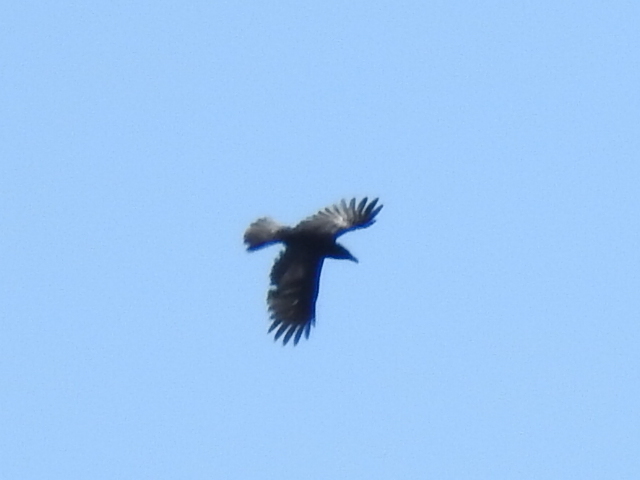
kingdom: Animalia
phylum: Chordata
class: Aves
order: Accipitriformes
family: Accipitridae
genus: Buteo
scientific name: Buteo lineatus
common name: Red-shouldered hawk
